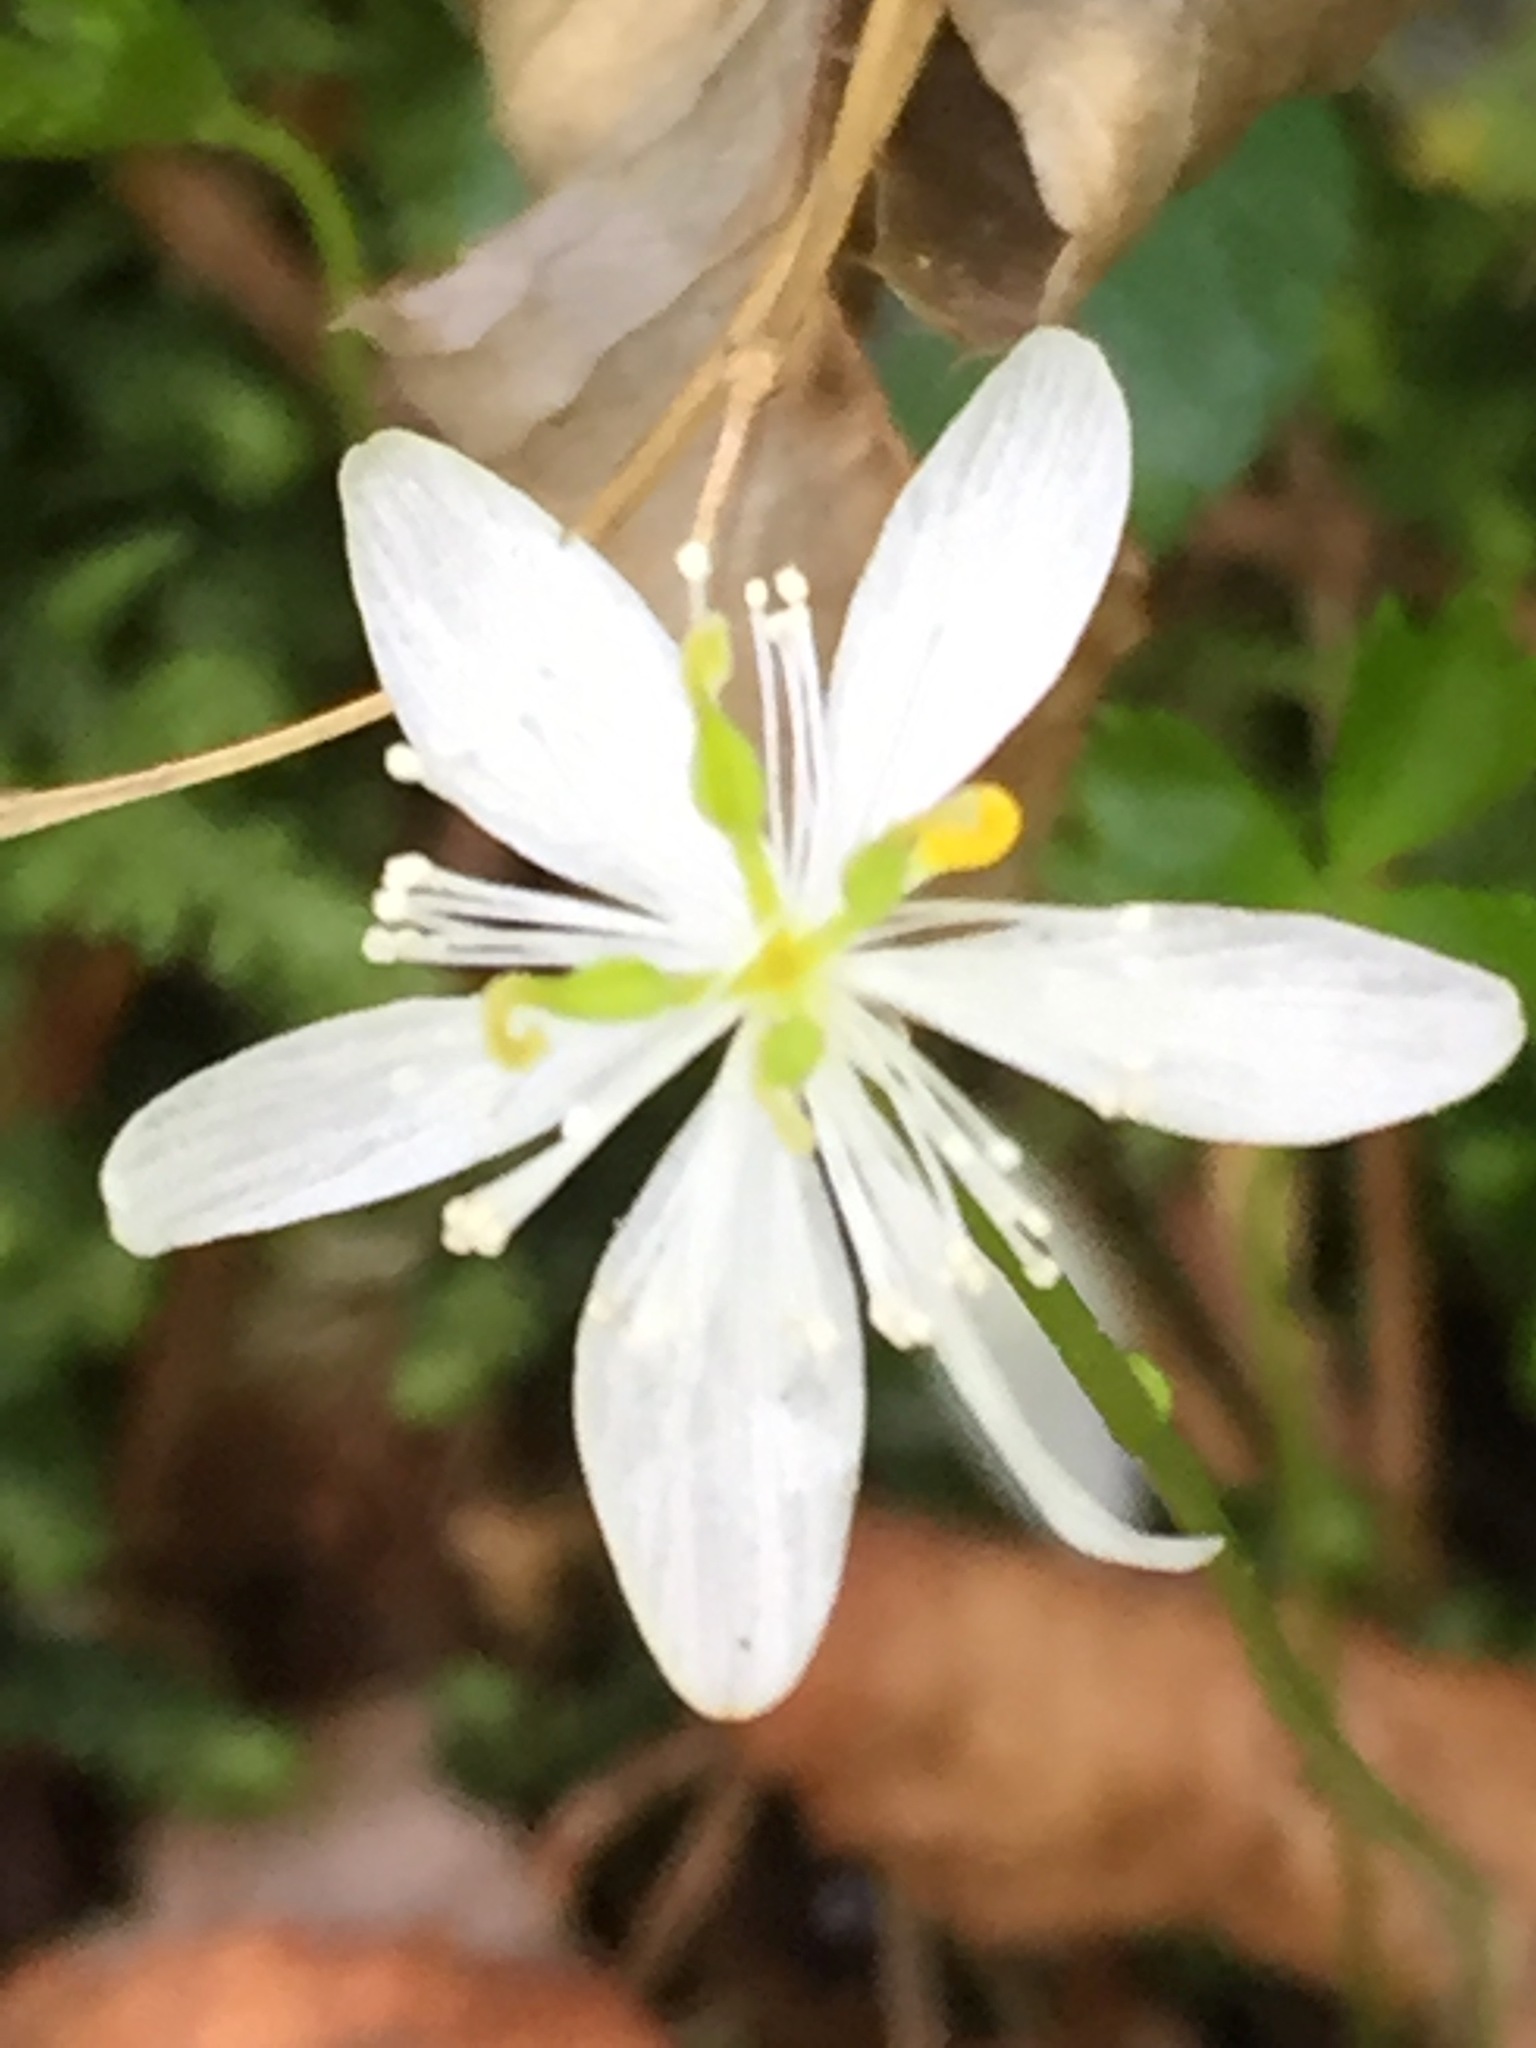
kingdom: Plantae
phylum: Tracheophyta
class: Magnoliopsida
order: Ranunculales
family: Ranunculaceae
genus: Coptis
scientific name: Coptis trifolia
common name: Canker-root
